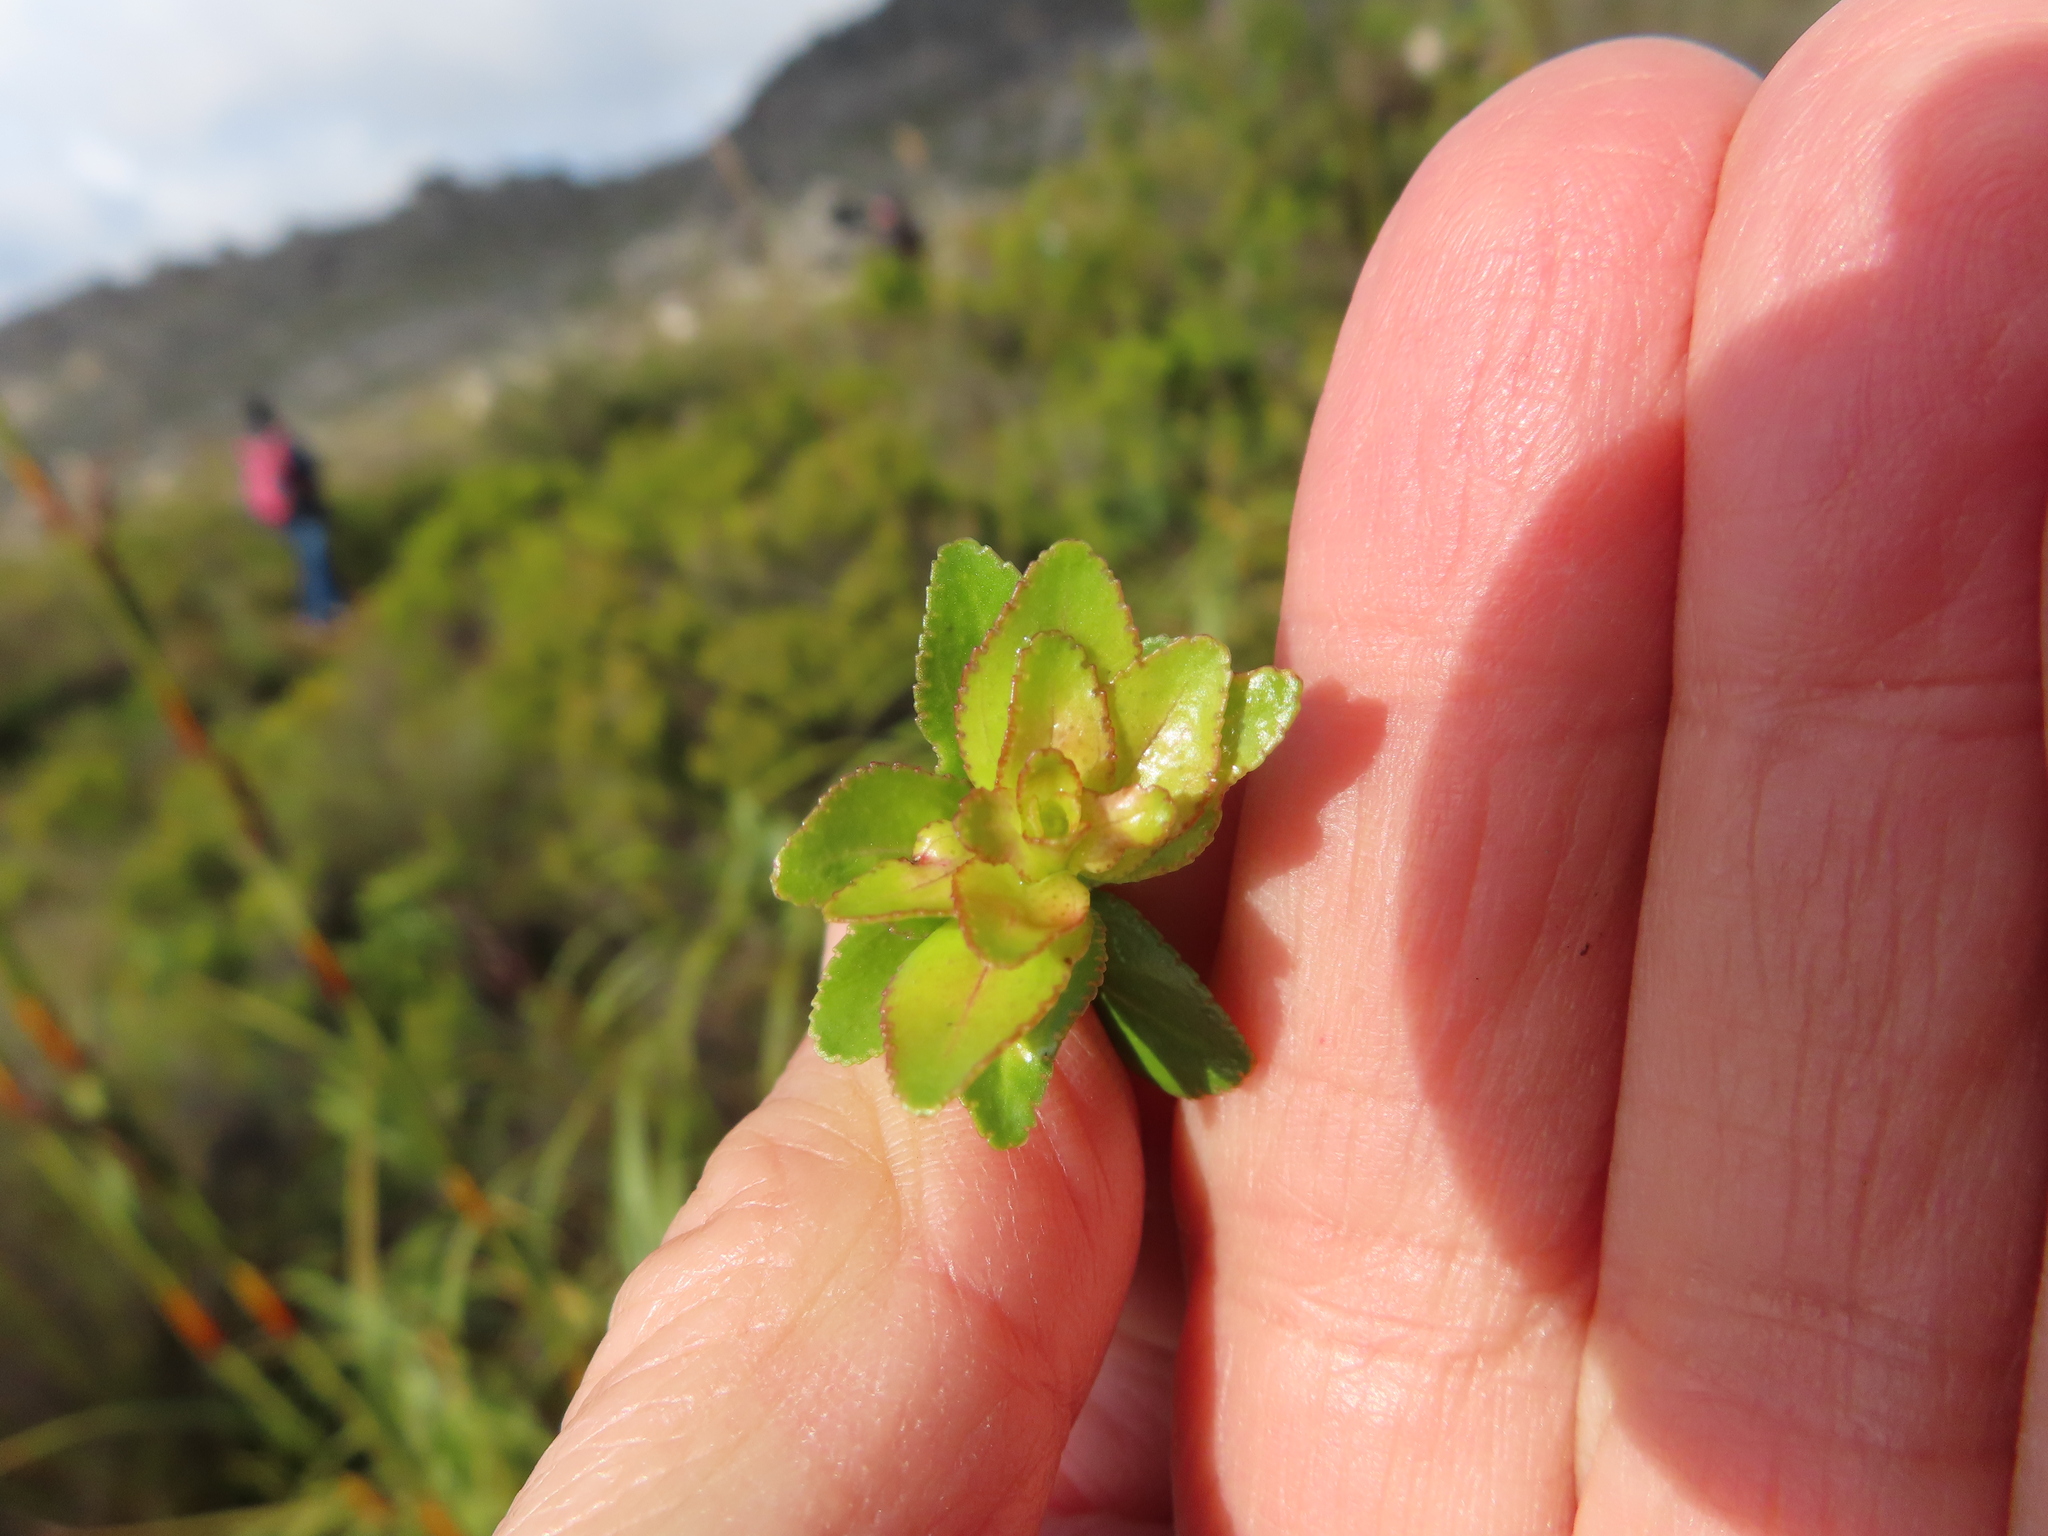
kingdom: Plantae
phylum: Tracheophyta
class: Magnoliopsida
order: Sapindales
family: Rutaceae
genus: Agathosma
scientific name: Agathosma crenulata
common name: Oval buchu
